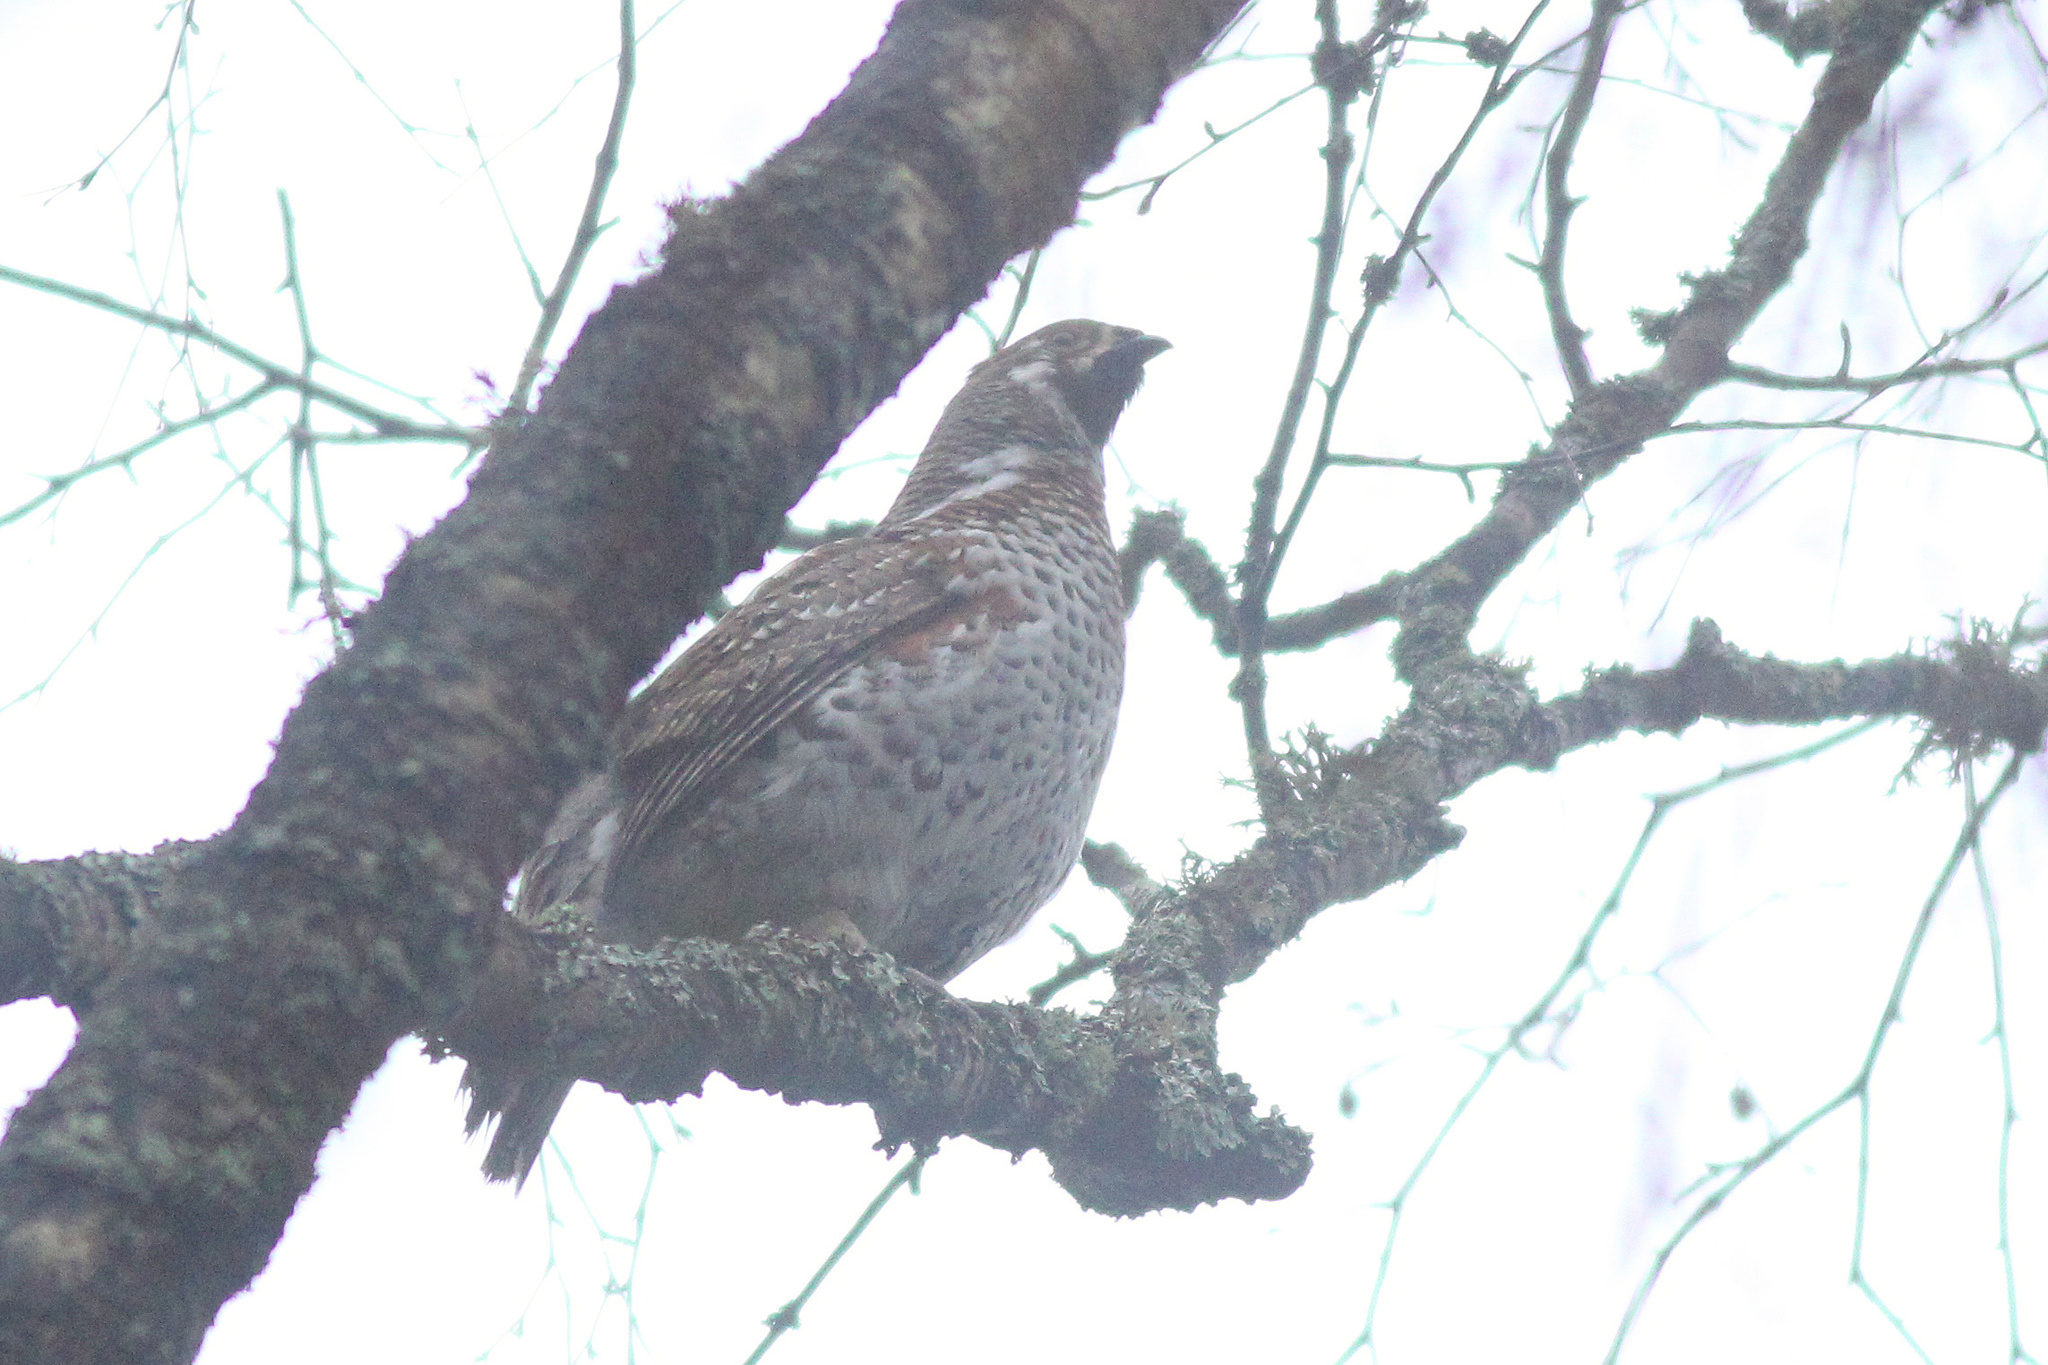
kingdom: Animalia
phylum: Chordata
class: Aves
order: Galliformes
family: Phasianidae
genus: Tetrastes
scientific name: Tetrastes bonasia
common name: Hazel grouse
